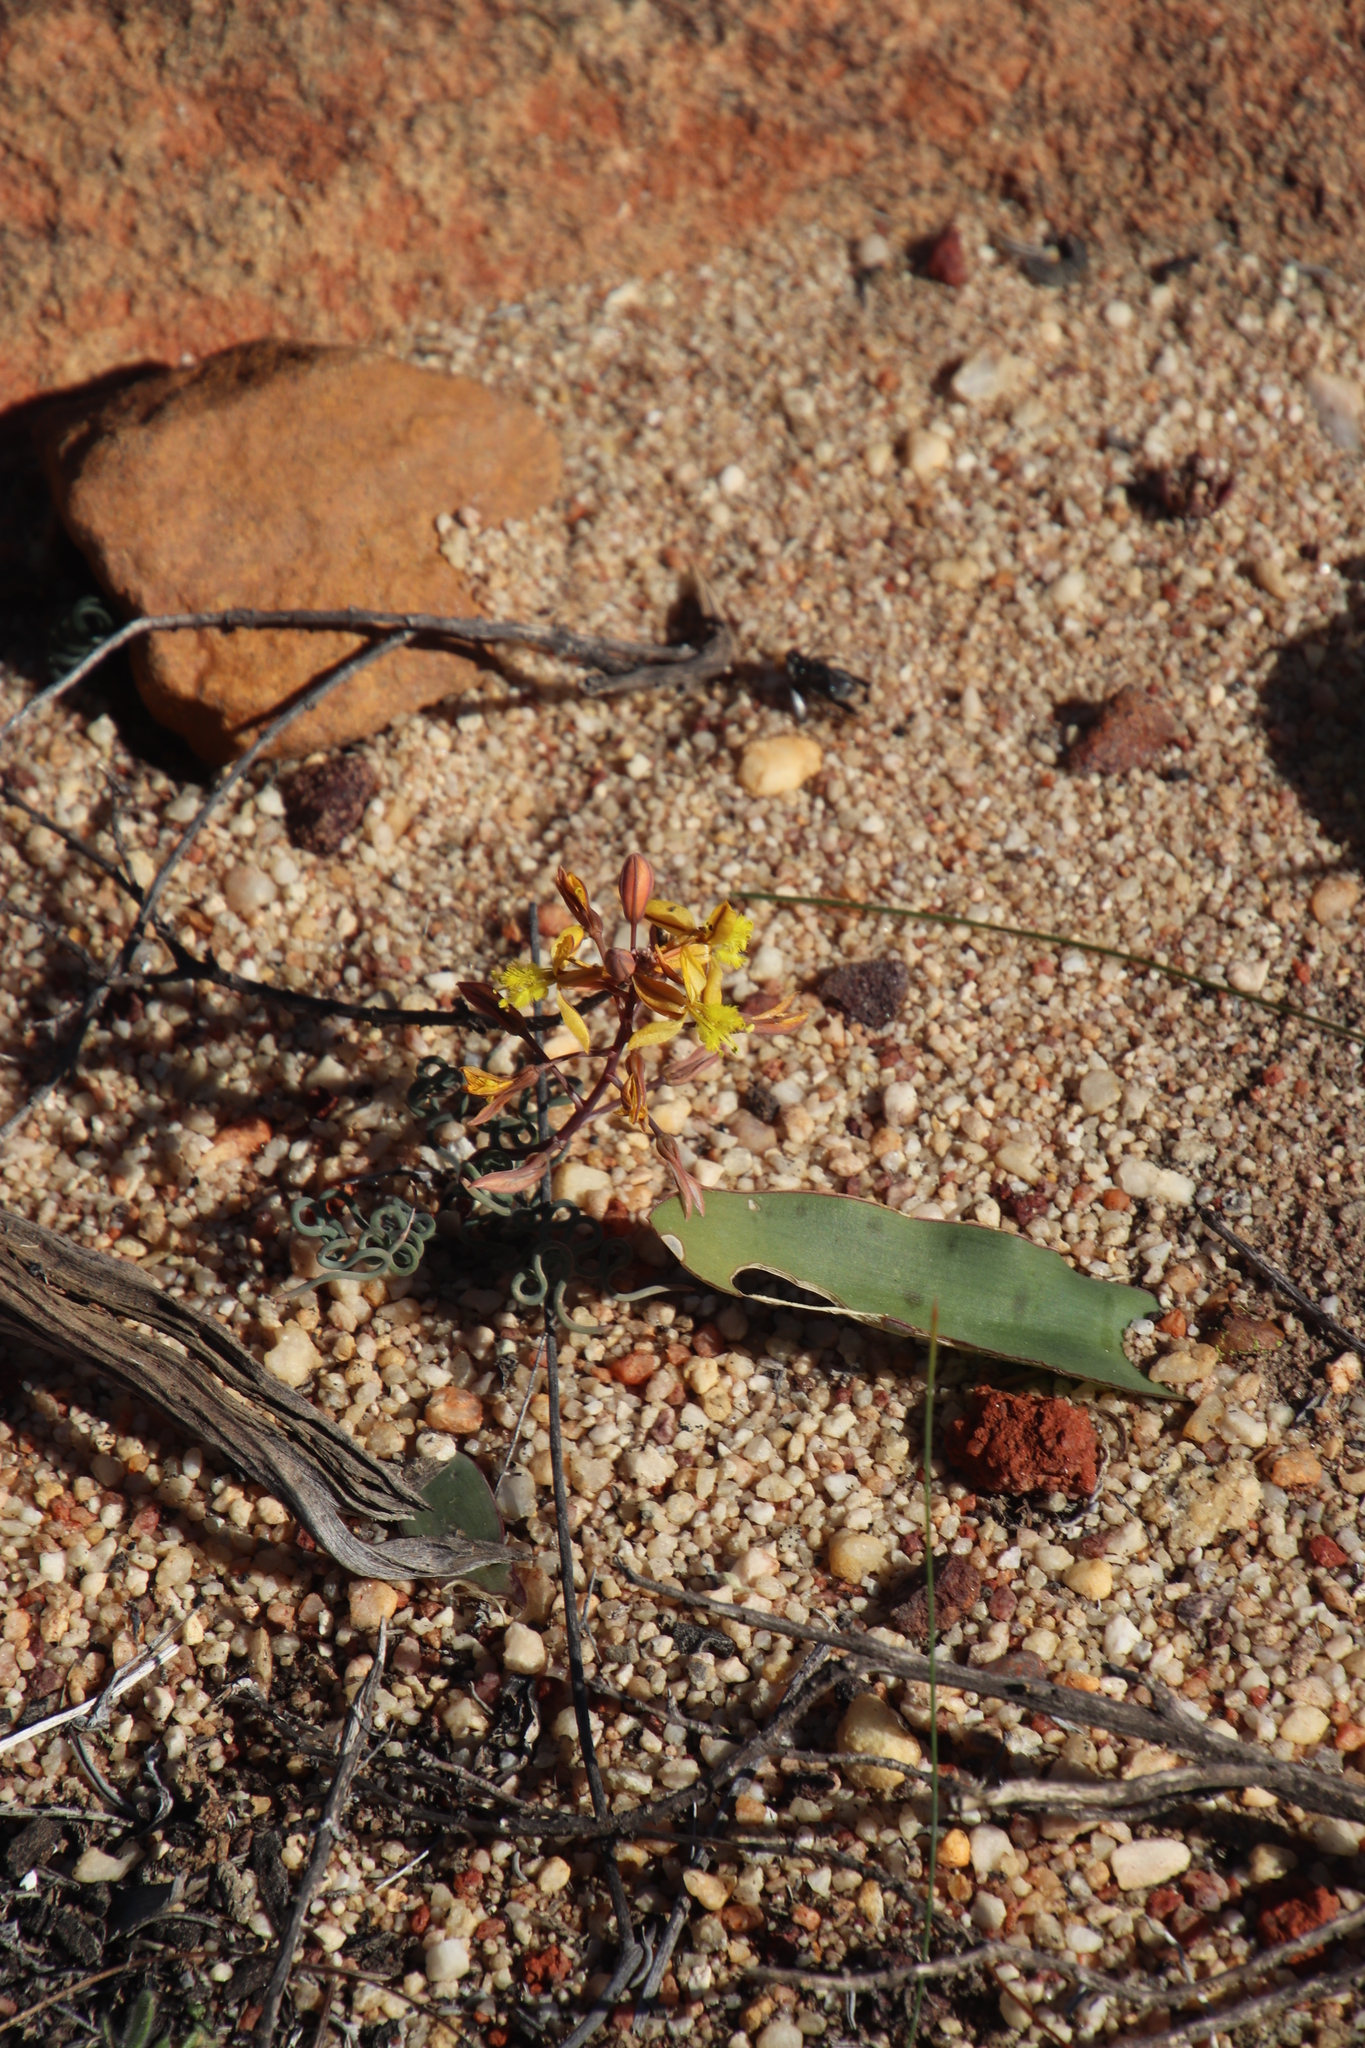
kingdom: Plantae
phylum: Tracheophyta
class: Liliopsida
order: Asparagales
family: Asphodelaceae
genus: Bulbine
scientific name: Bulbine torta
